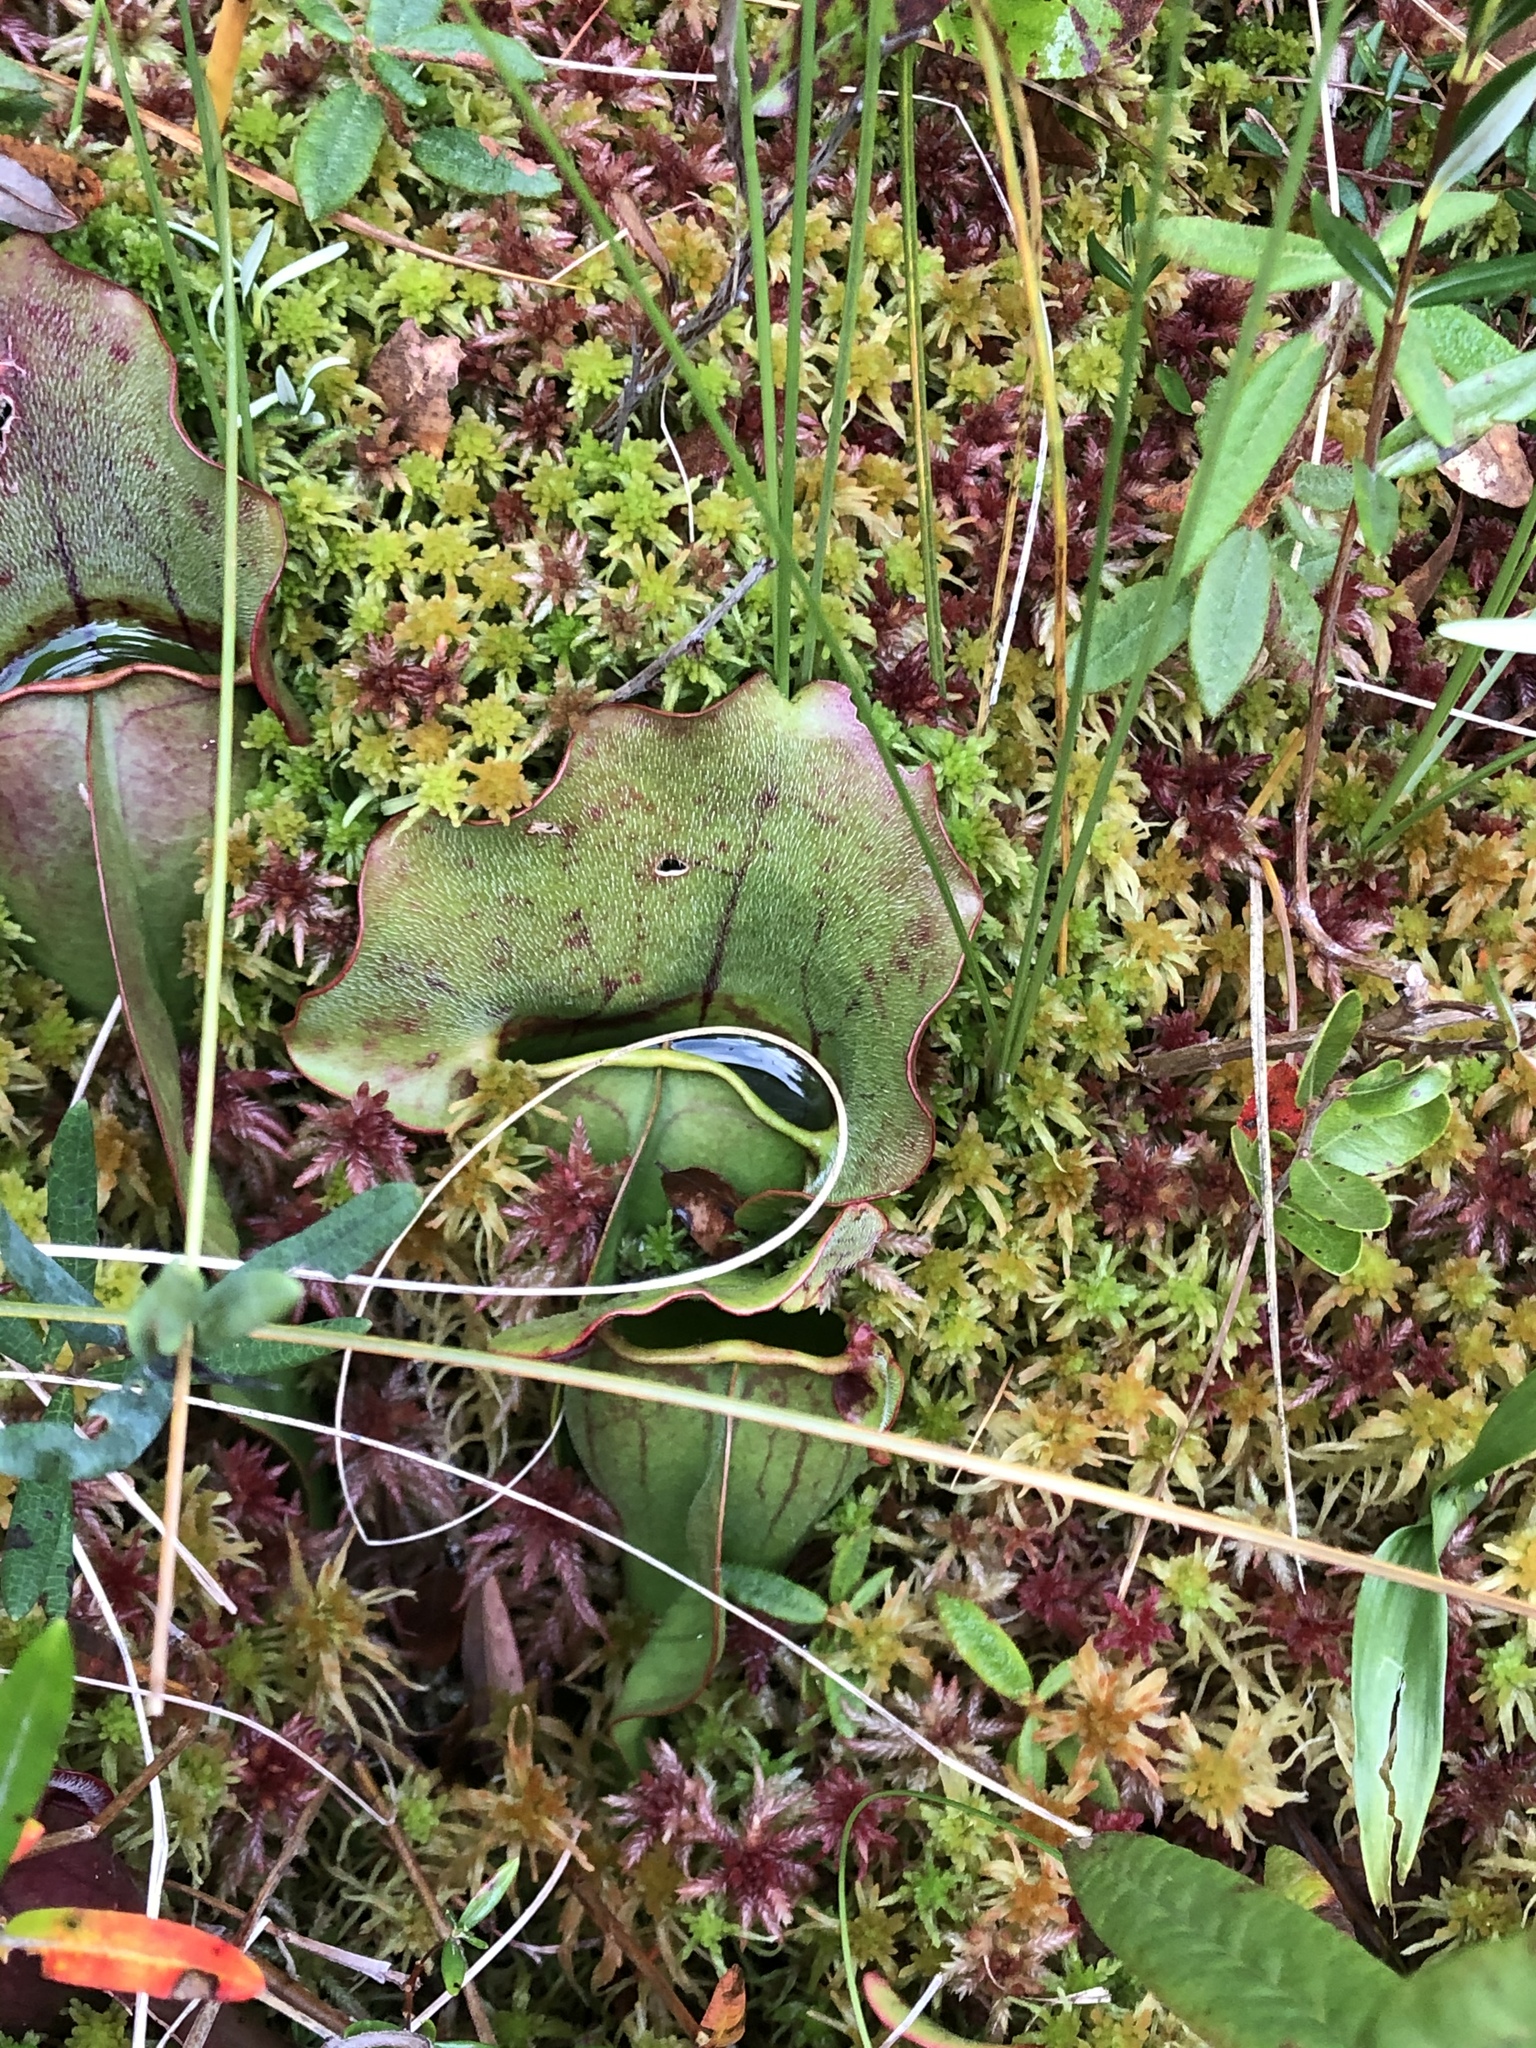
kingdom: Plantae
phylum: Tracheophyta
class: Magnoliopsida
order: Ericales
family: Sarraceniaceae
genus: Sarracenia
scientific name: Sarracenia purpurea
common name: Pitcherplant
